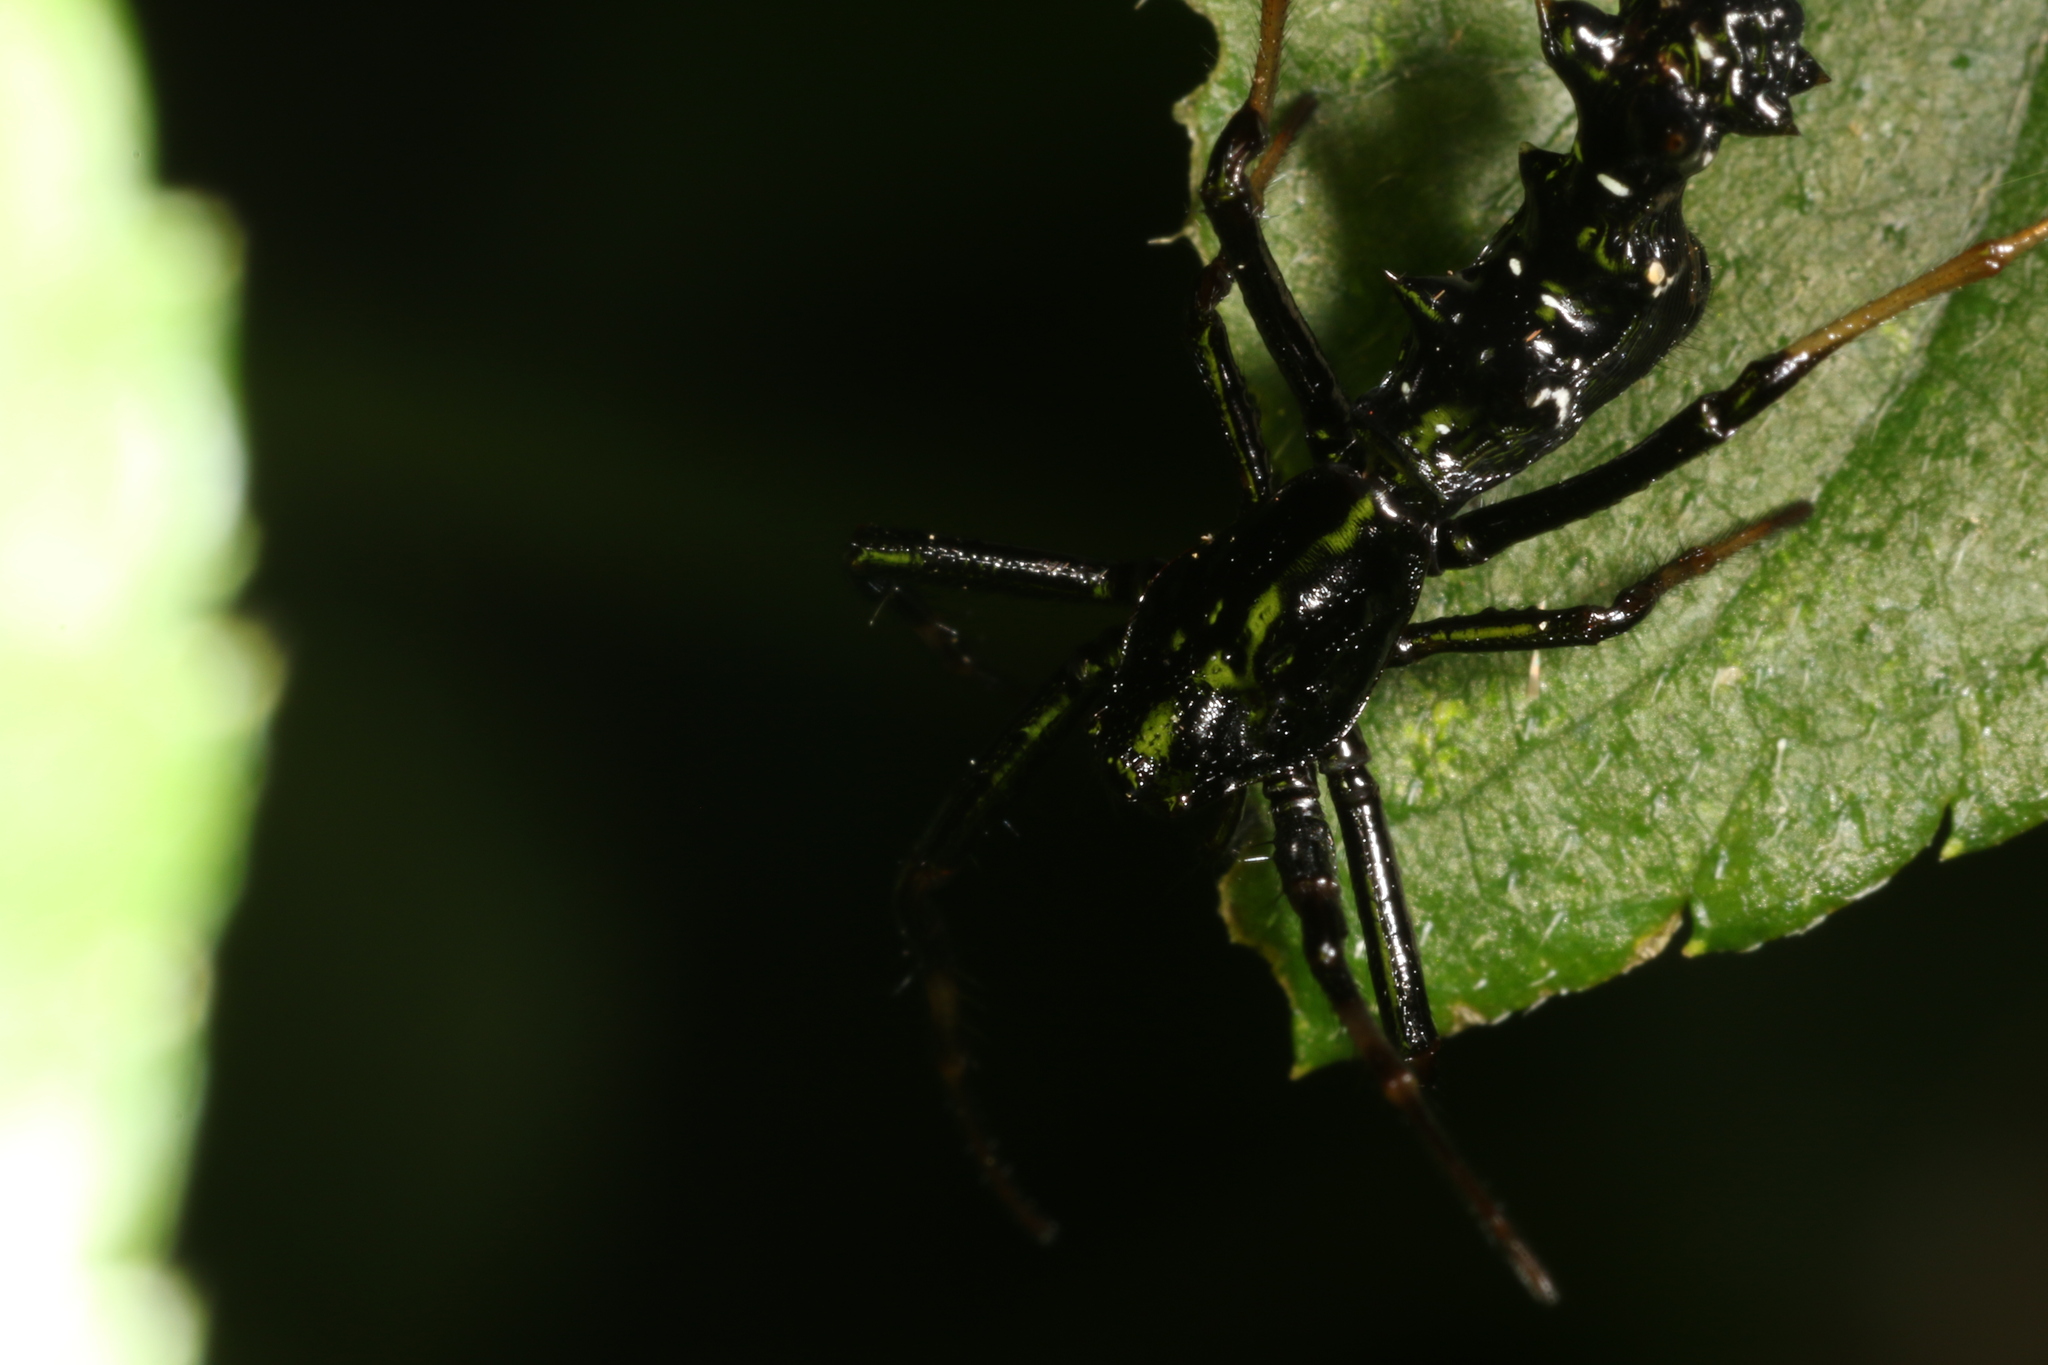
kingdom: Animalia
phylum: Arthropoda
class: Arachnida
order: Araneae
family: Araneidae
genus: Micrathena
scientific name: Micrathena spitzi
